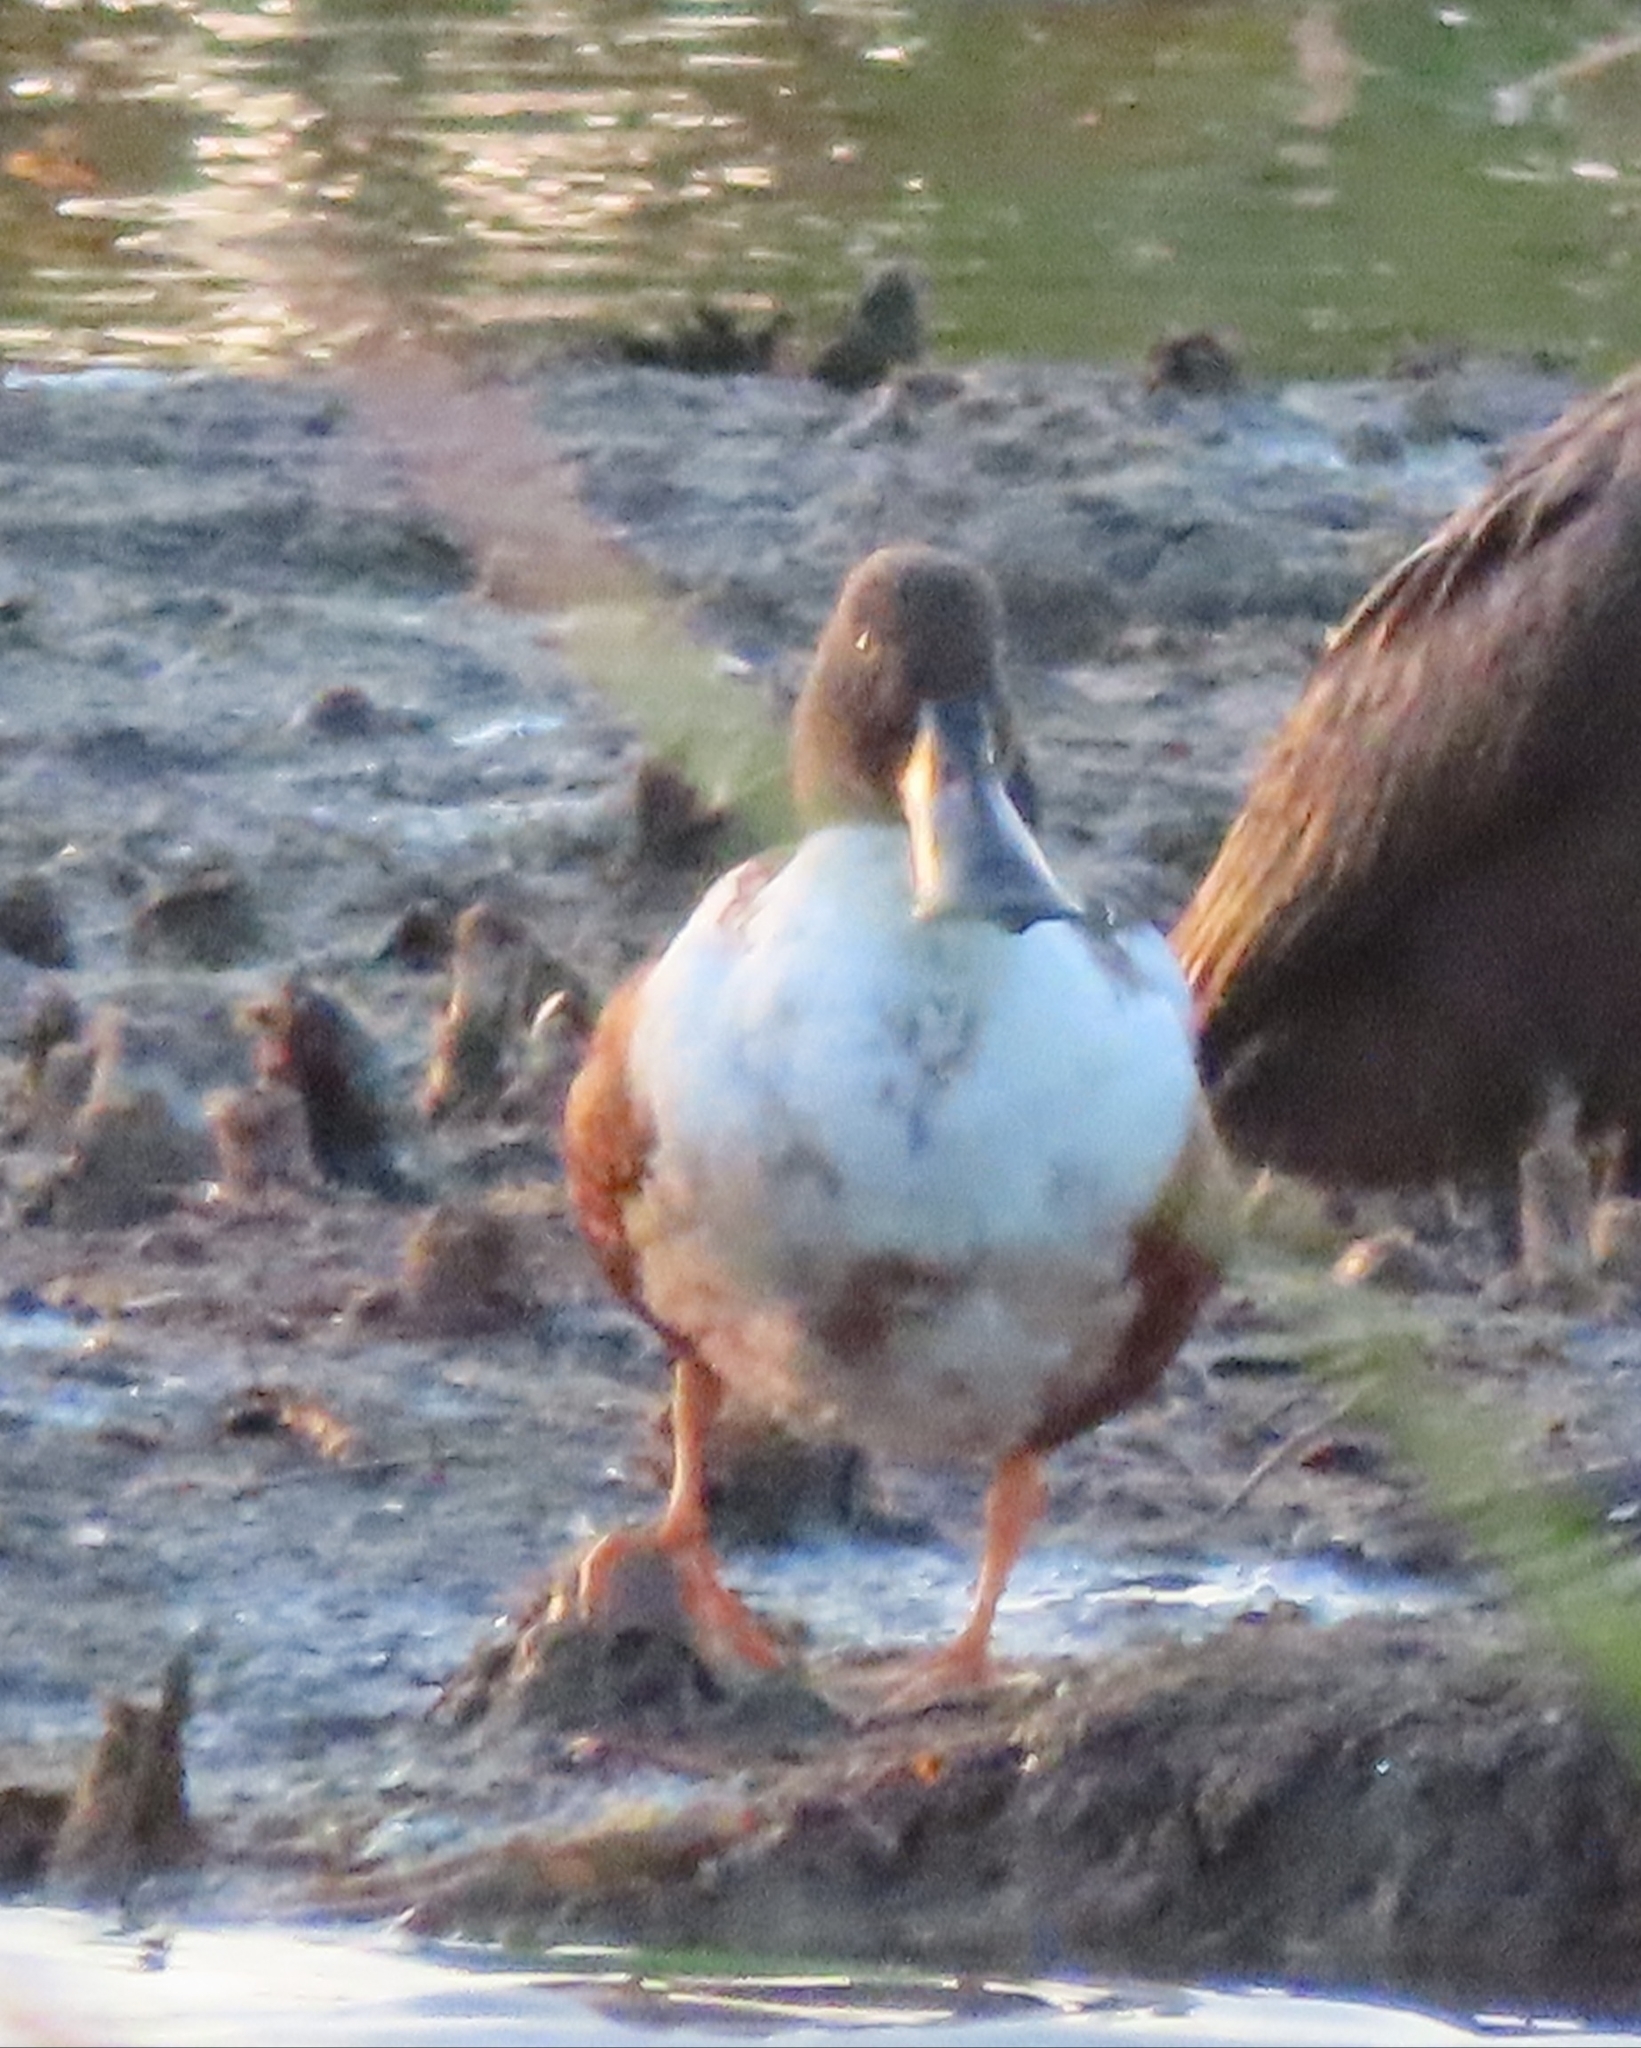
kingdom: Animalia
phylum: Chordata
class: Aves
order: Anseriformes
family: Anatidae
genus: Spatula
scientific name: Spatula clypeata
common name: Northern shoveler
